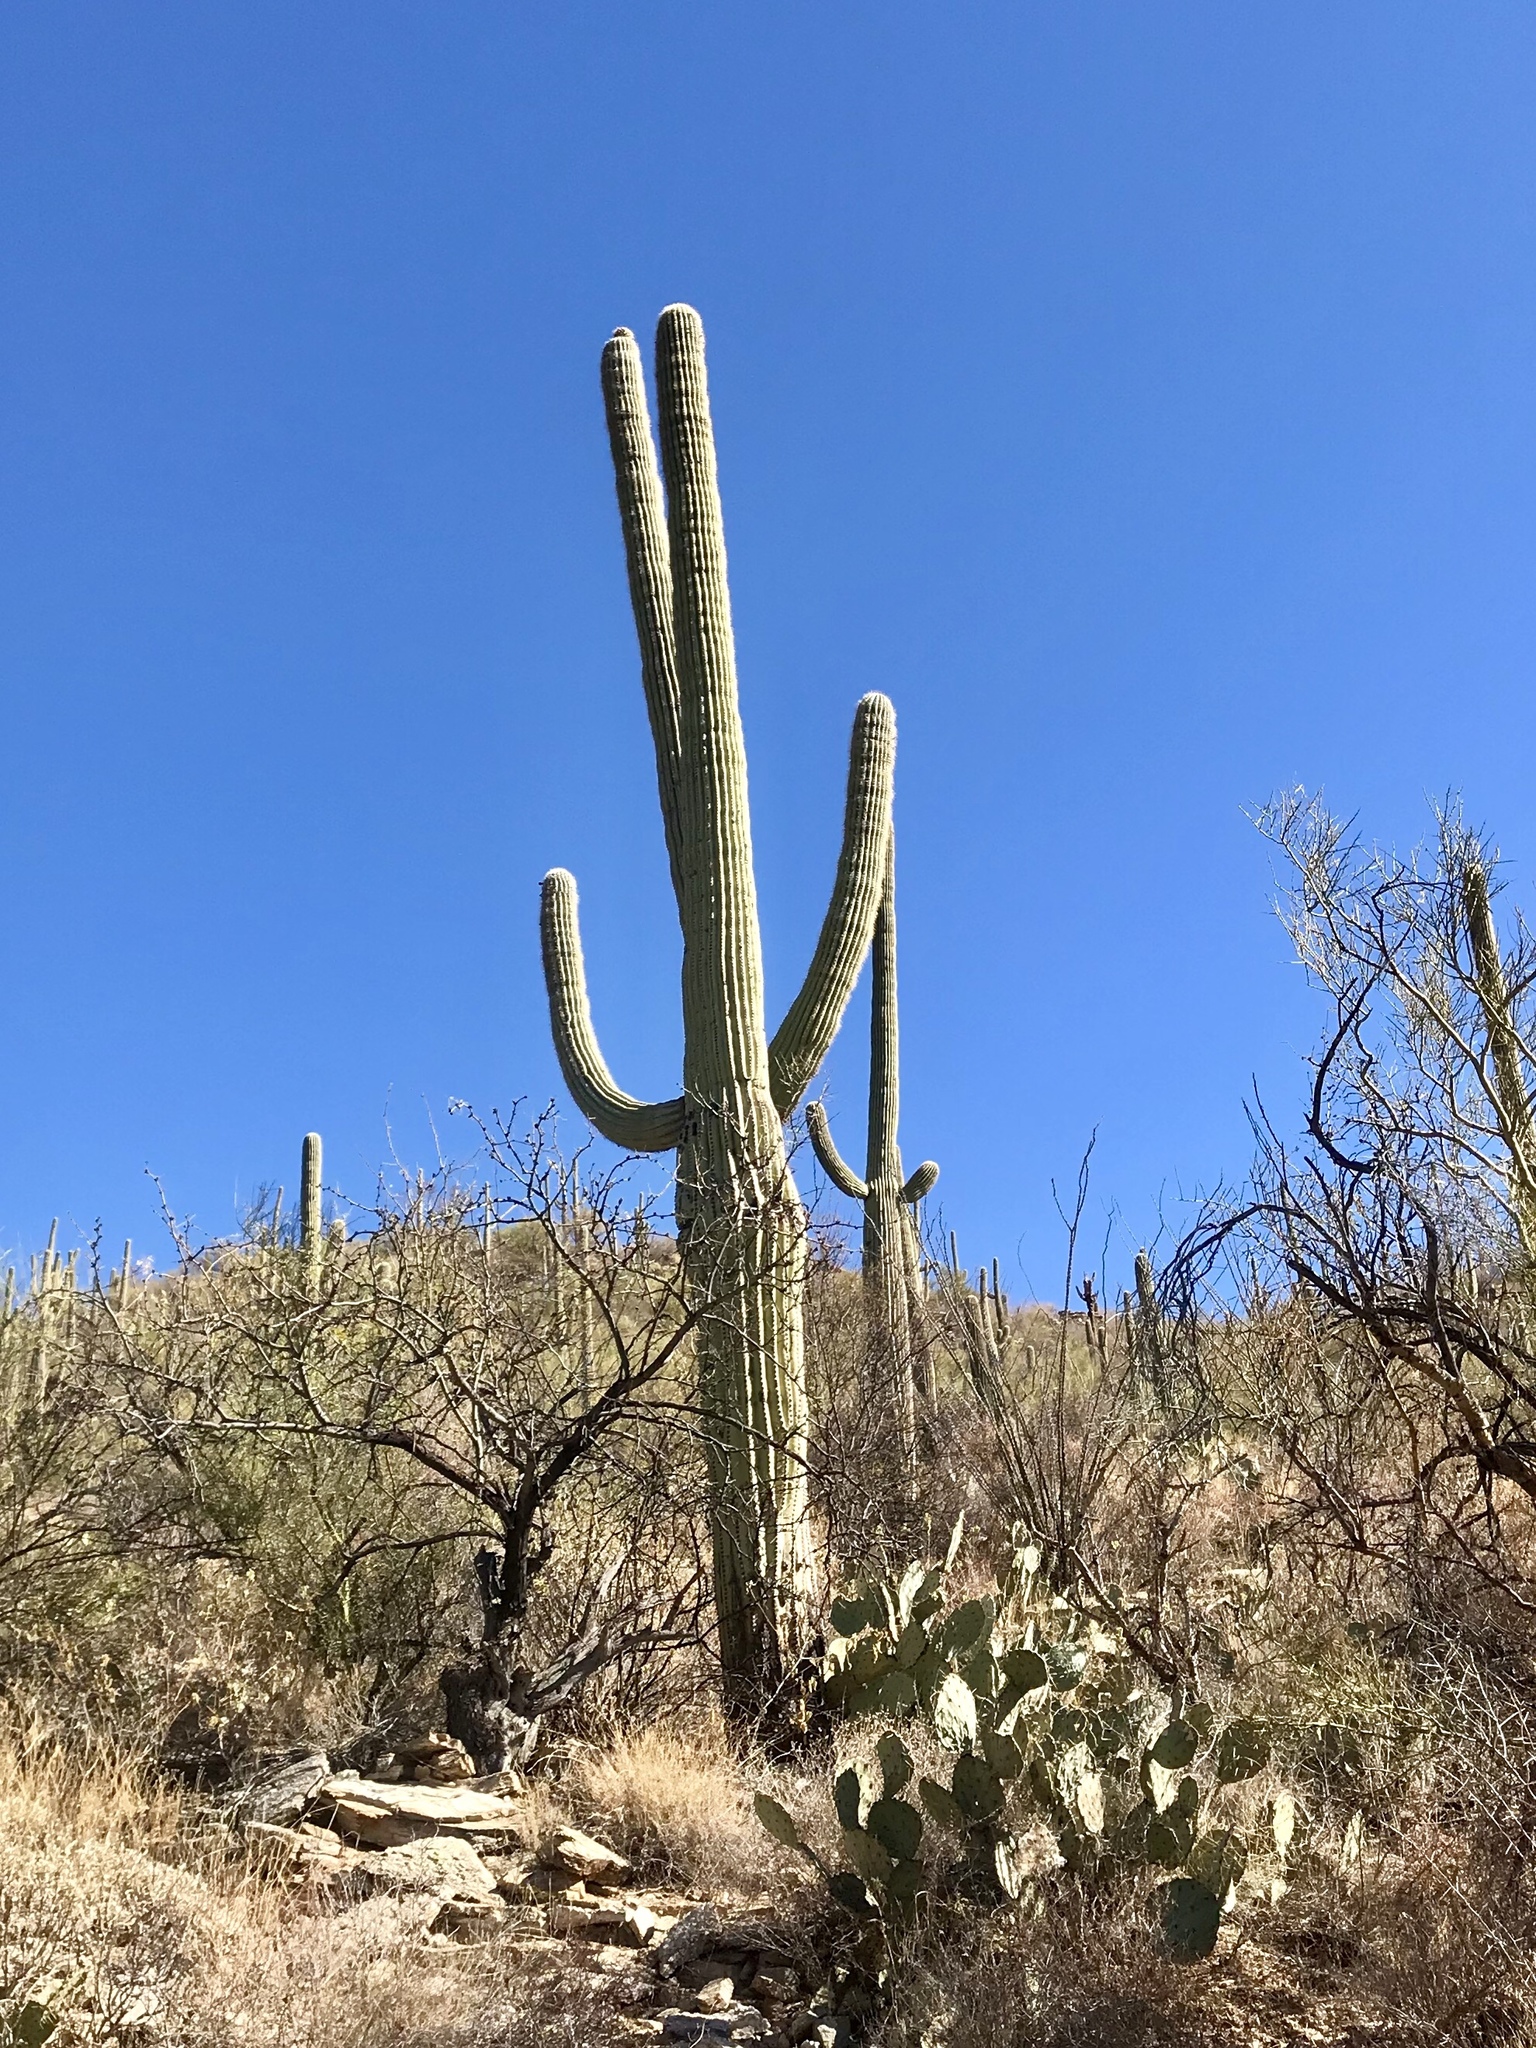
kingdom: Plantae
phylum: Tracheophyta
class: Magnoliopsida
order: Caryophyllales
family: Cactaceae
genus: Carnegiea
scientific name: Carnegiea gigantea
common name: Saguaro
